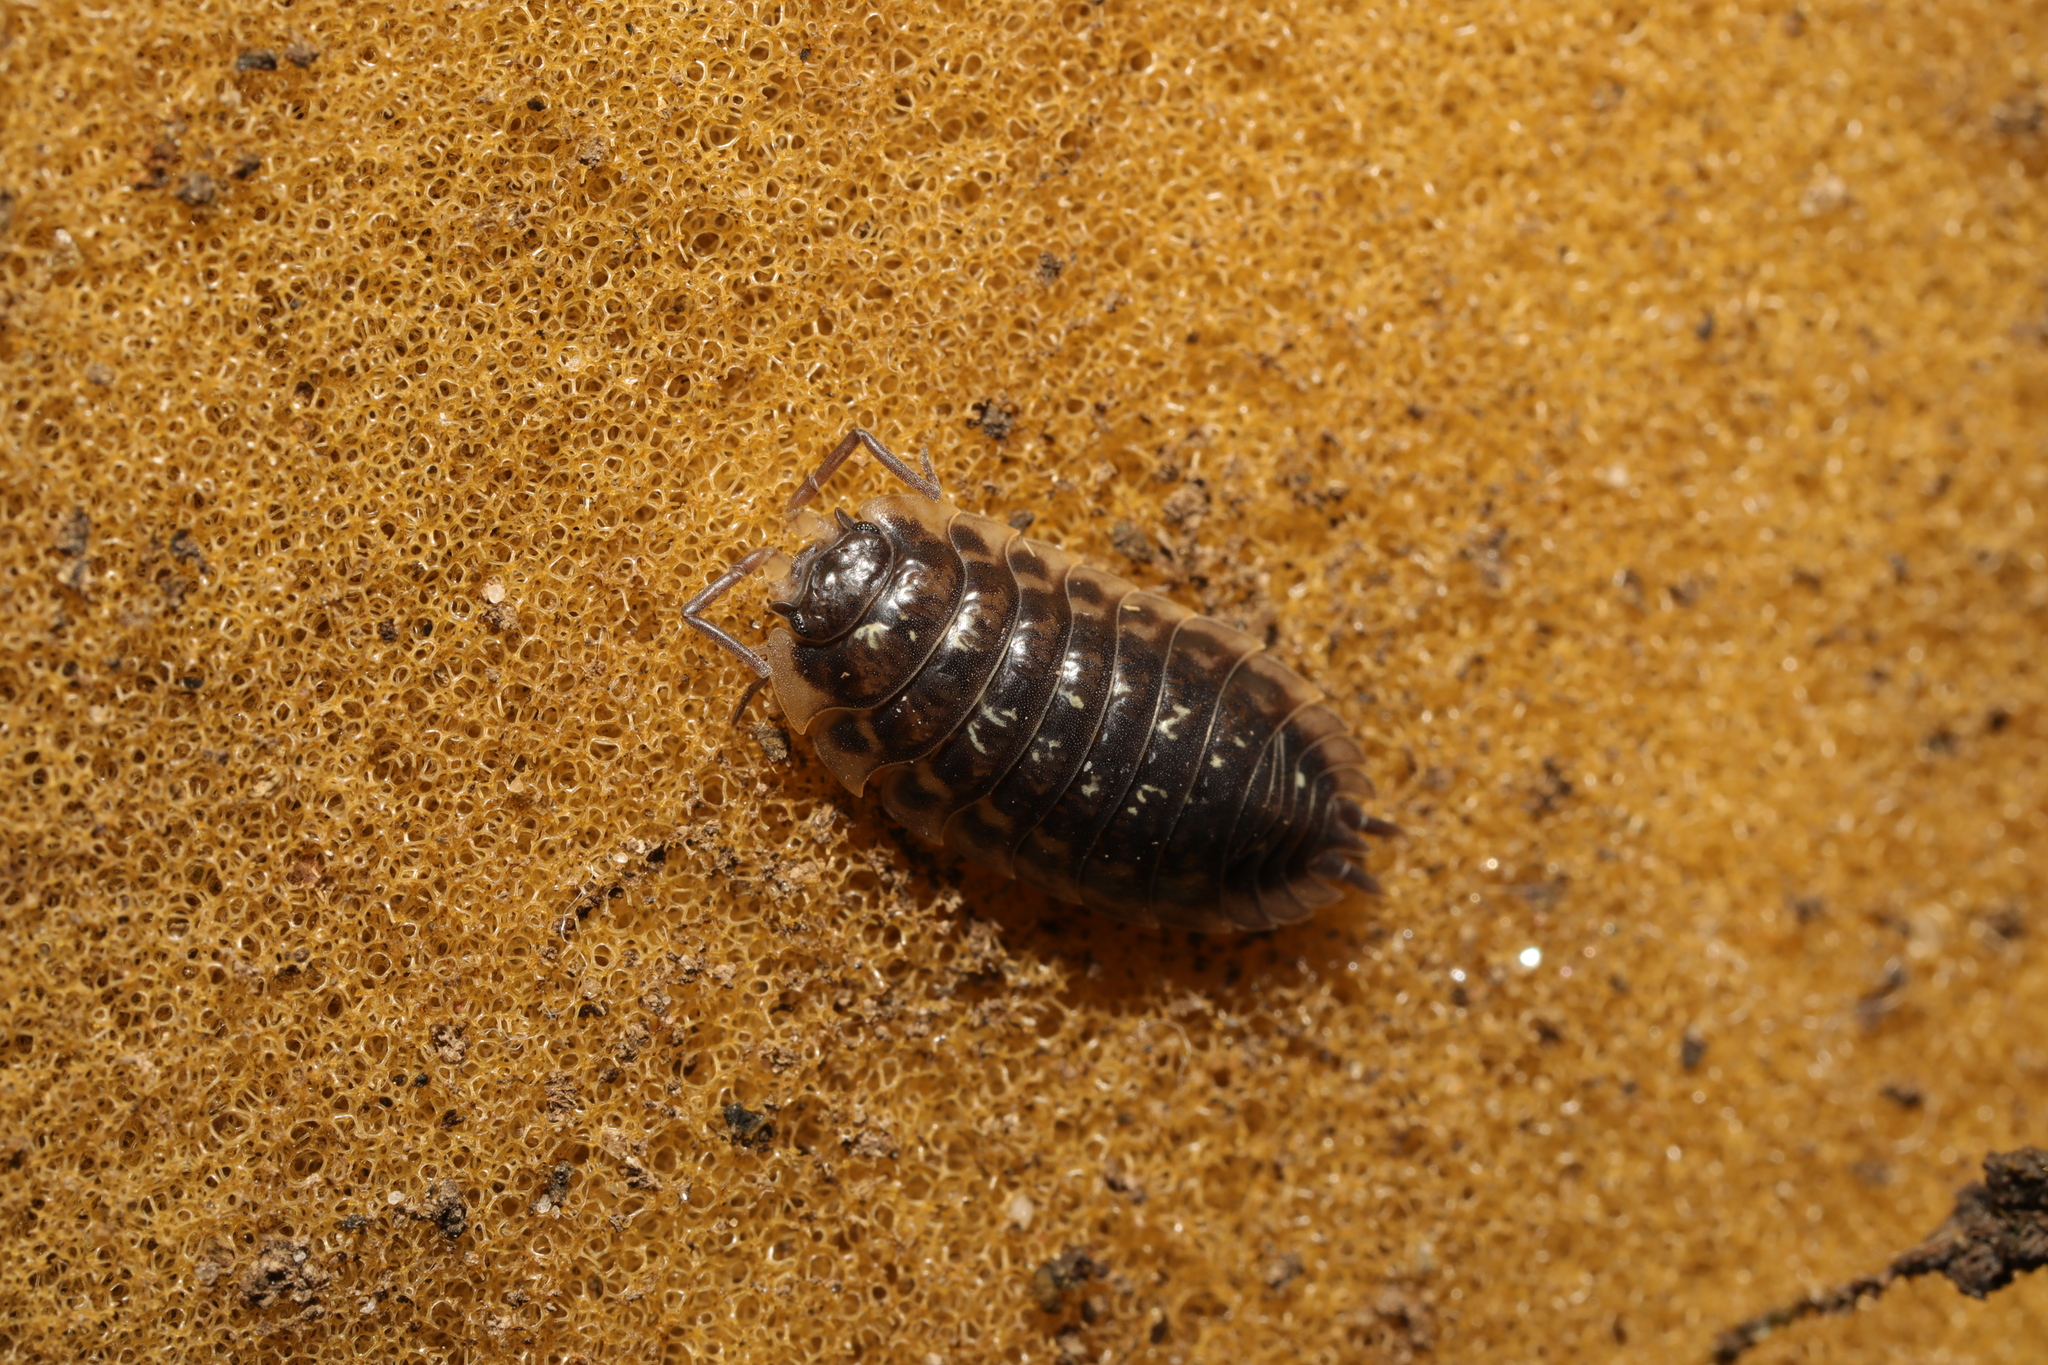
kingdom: Animalia
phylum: Arthropoda
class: Malacostraca
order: Isopoda
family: Oniscidae
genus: Oniscus
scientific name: Oniscus asellus
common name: Common shiny woodlouse
